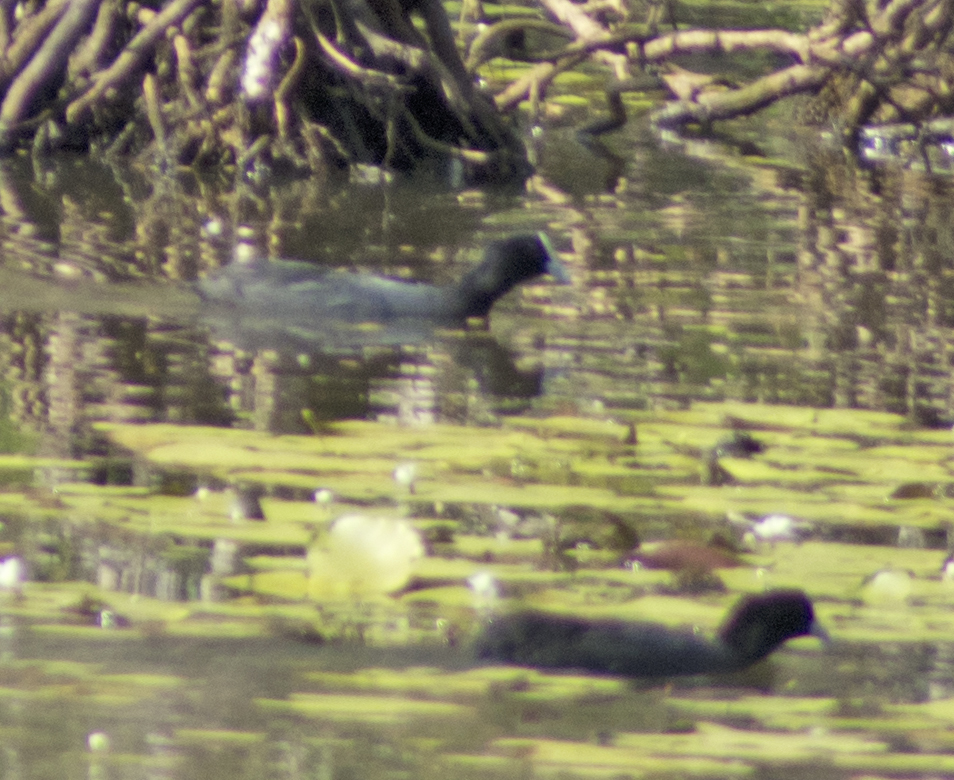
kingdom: Animalia
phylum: Chordata
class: Aves
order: Gruiformes
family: Rallidae
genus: Fulica
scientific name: Fulica atra
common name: Eurasian coot
